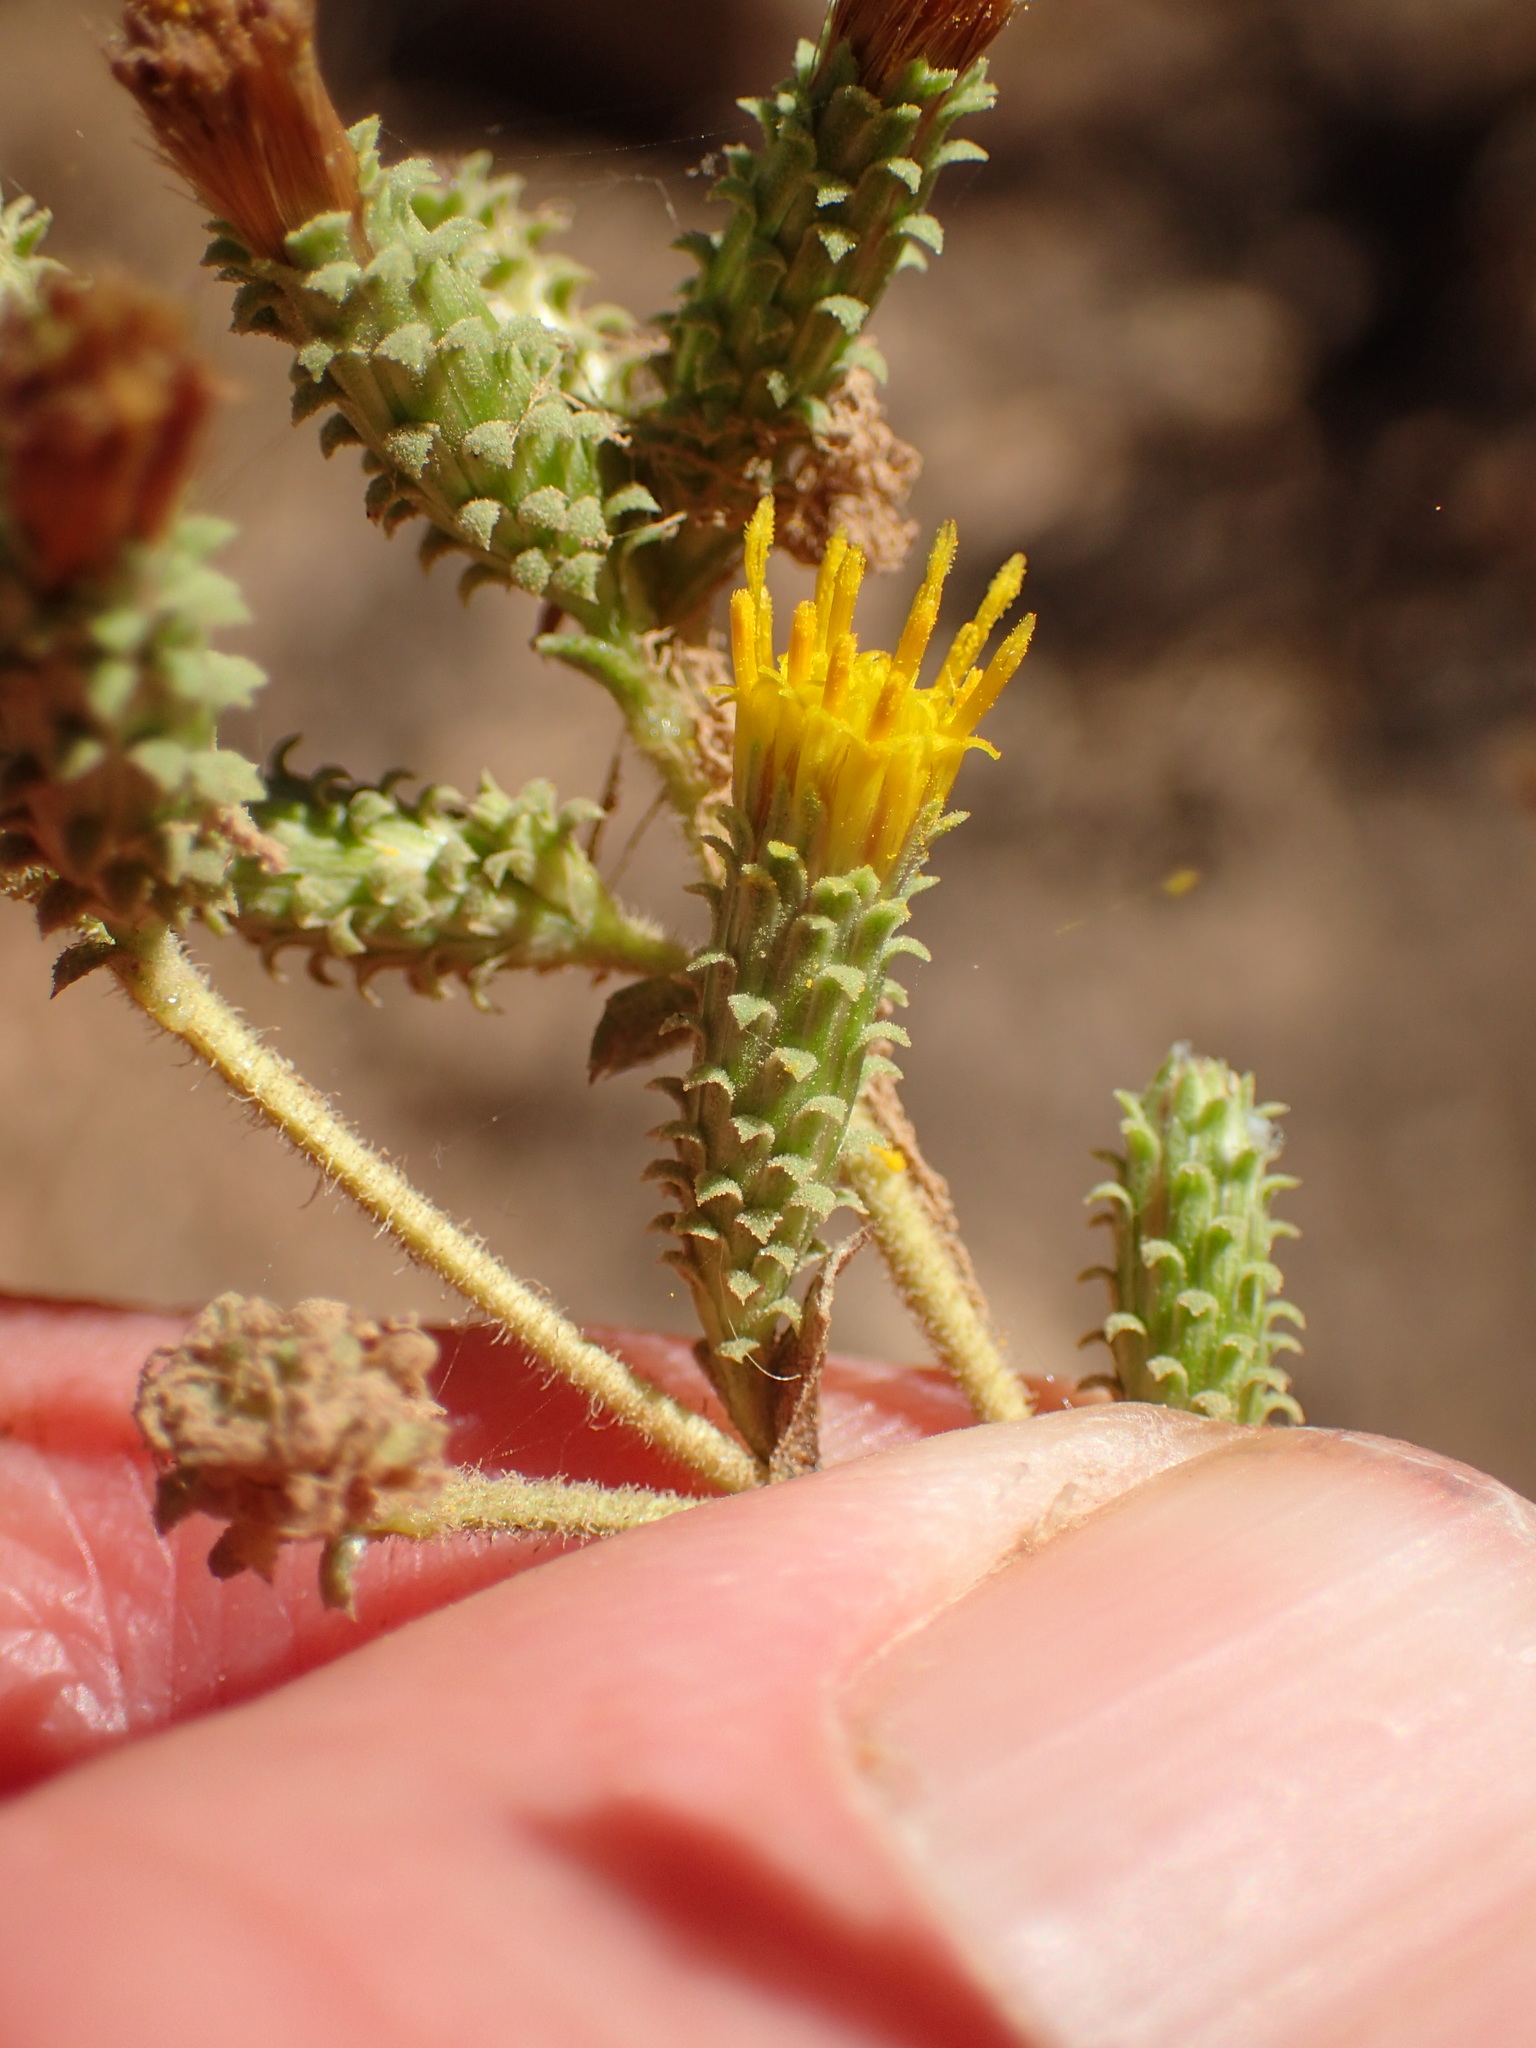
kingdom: Plantae
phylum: Tracheophyta
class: Magnoliopsida
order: Asterales
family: Asteraceae
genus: Hazardia
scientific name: Hazardia squarrosa
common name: Saw-tooth goldenbush
